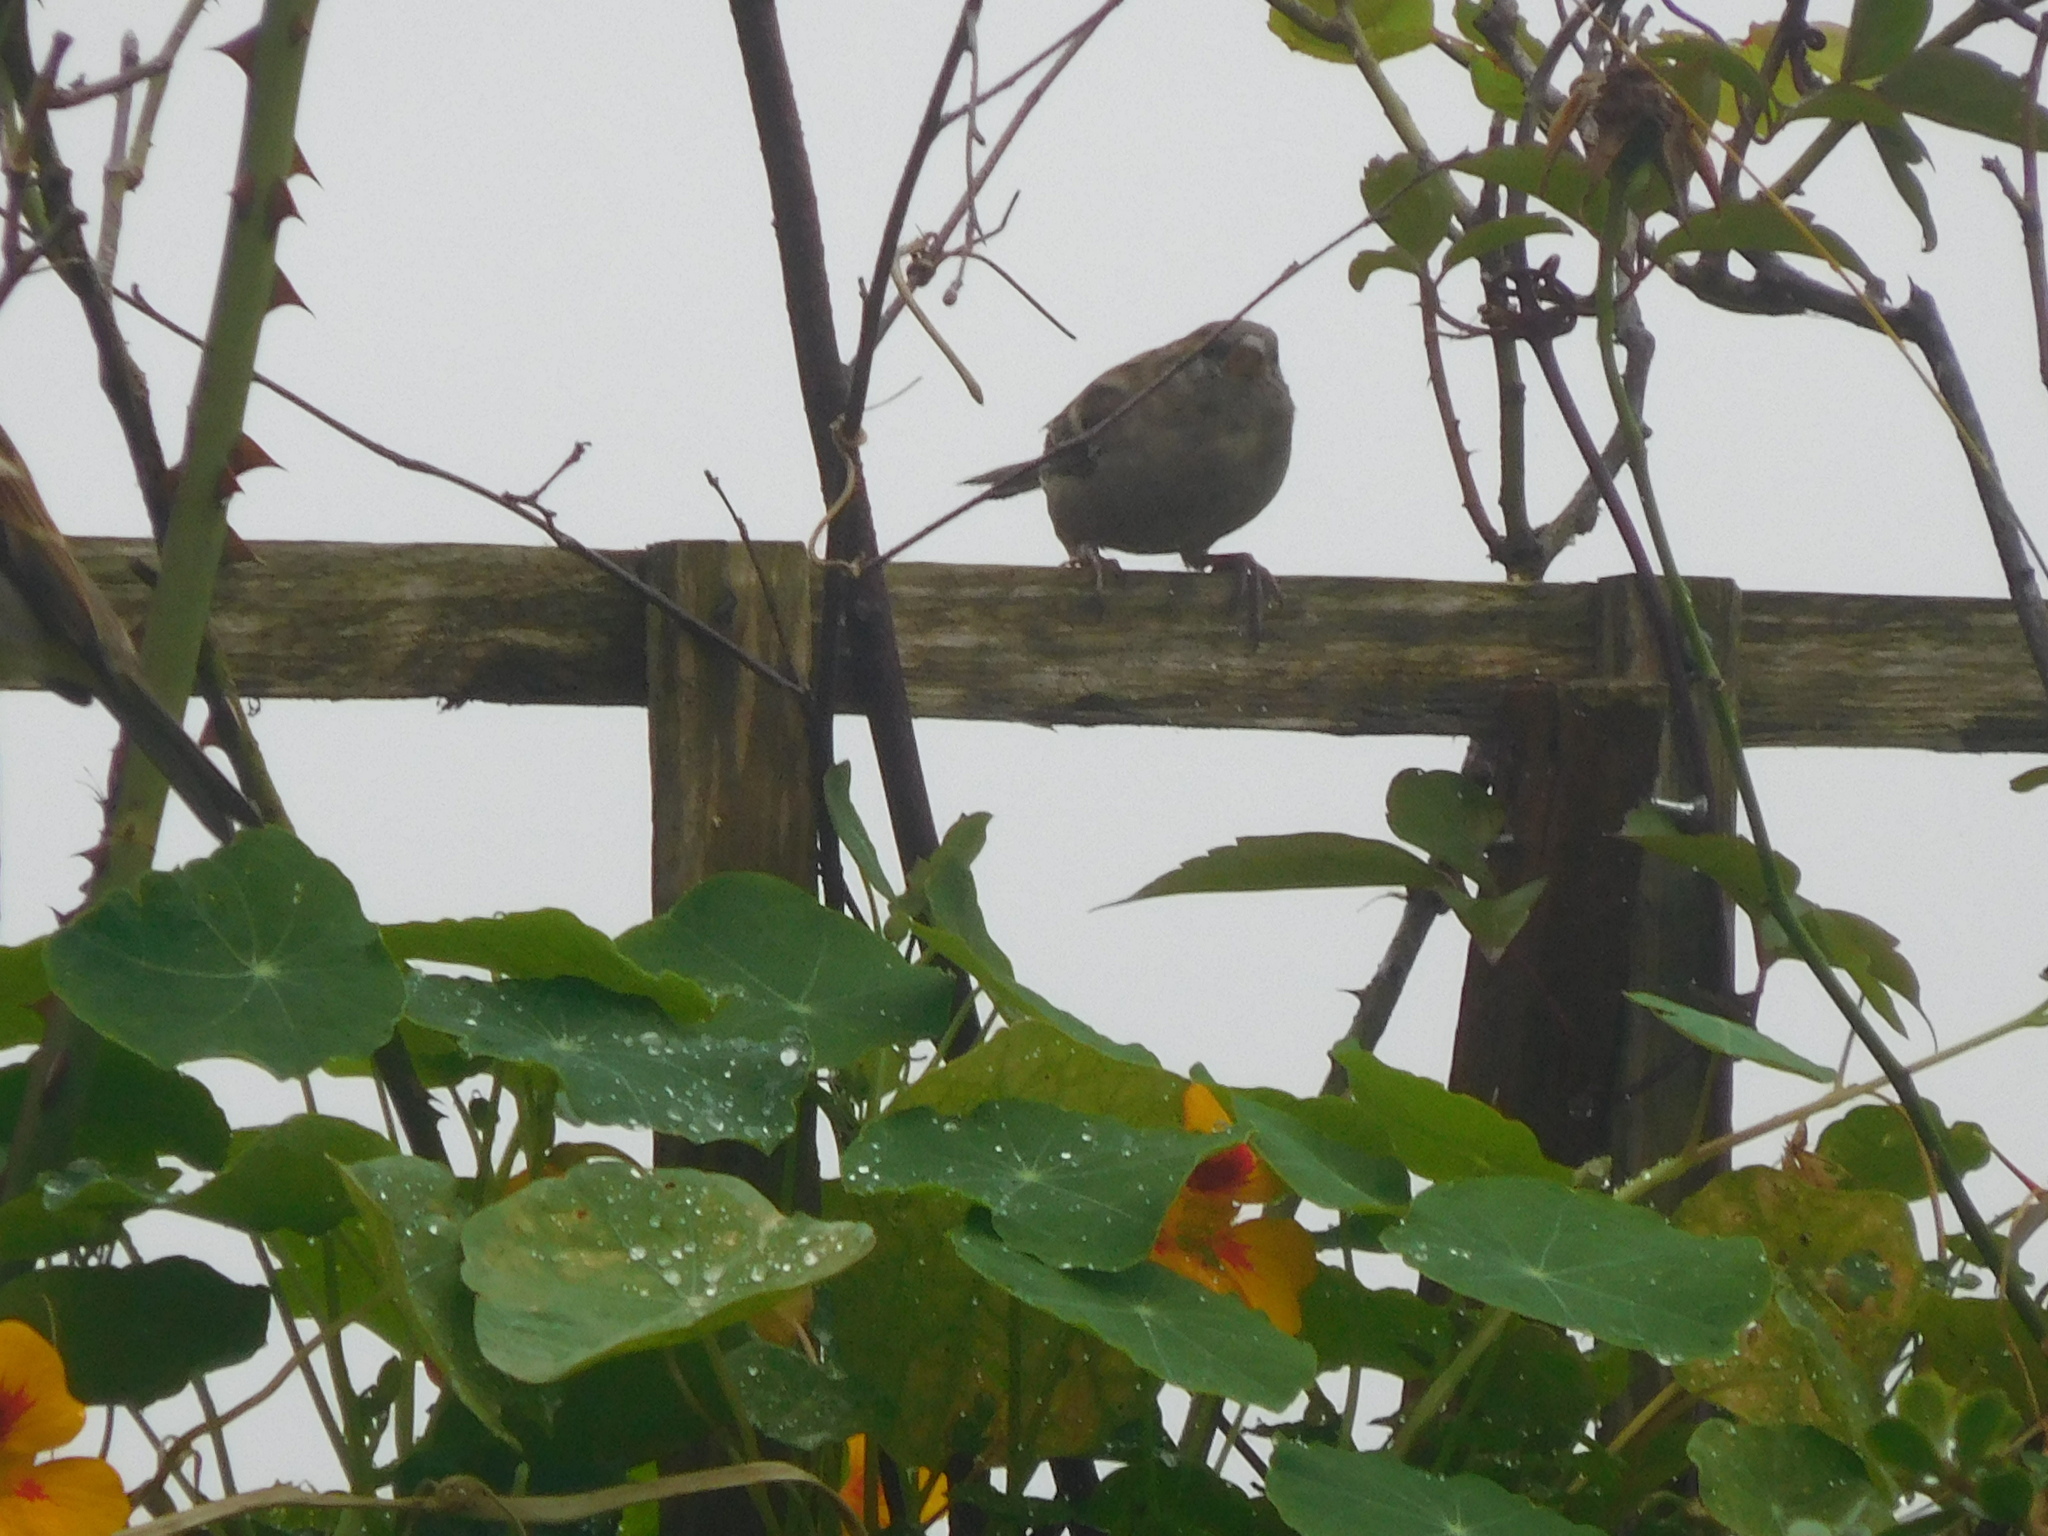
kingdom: Animalia
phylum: Chordata
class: Aves
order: Passeriformes
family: Passeridae
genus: Passer
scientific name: Passer domesticus
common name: House sparrow
